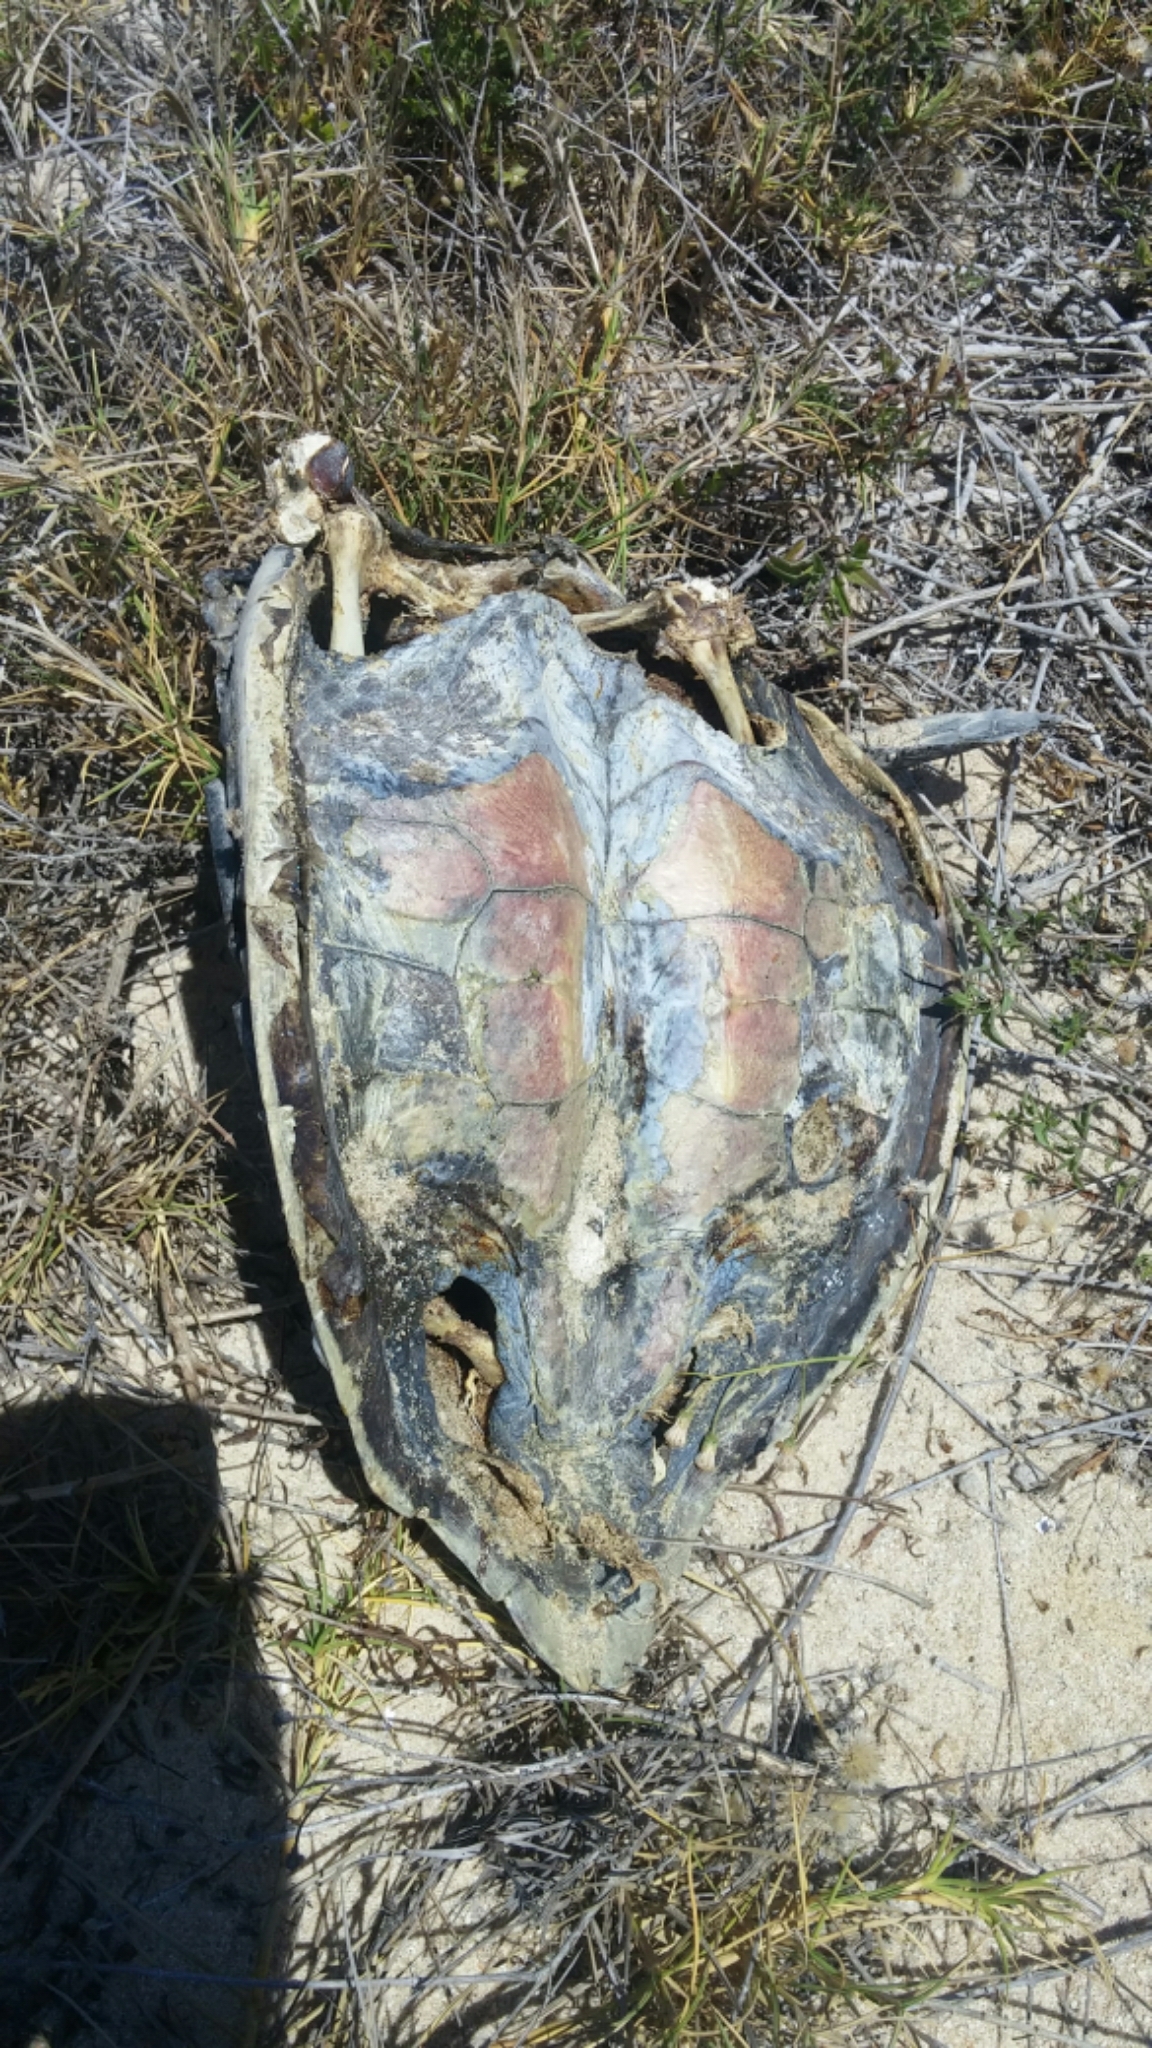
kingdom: Animalia
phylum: Chordata
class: Testudines
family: Cheloniidae
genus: Lepidochelys
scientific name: Lepidochelys olivacea
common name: Olive ridley
